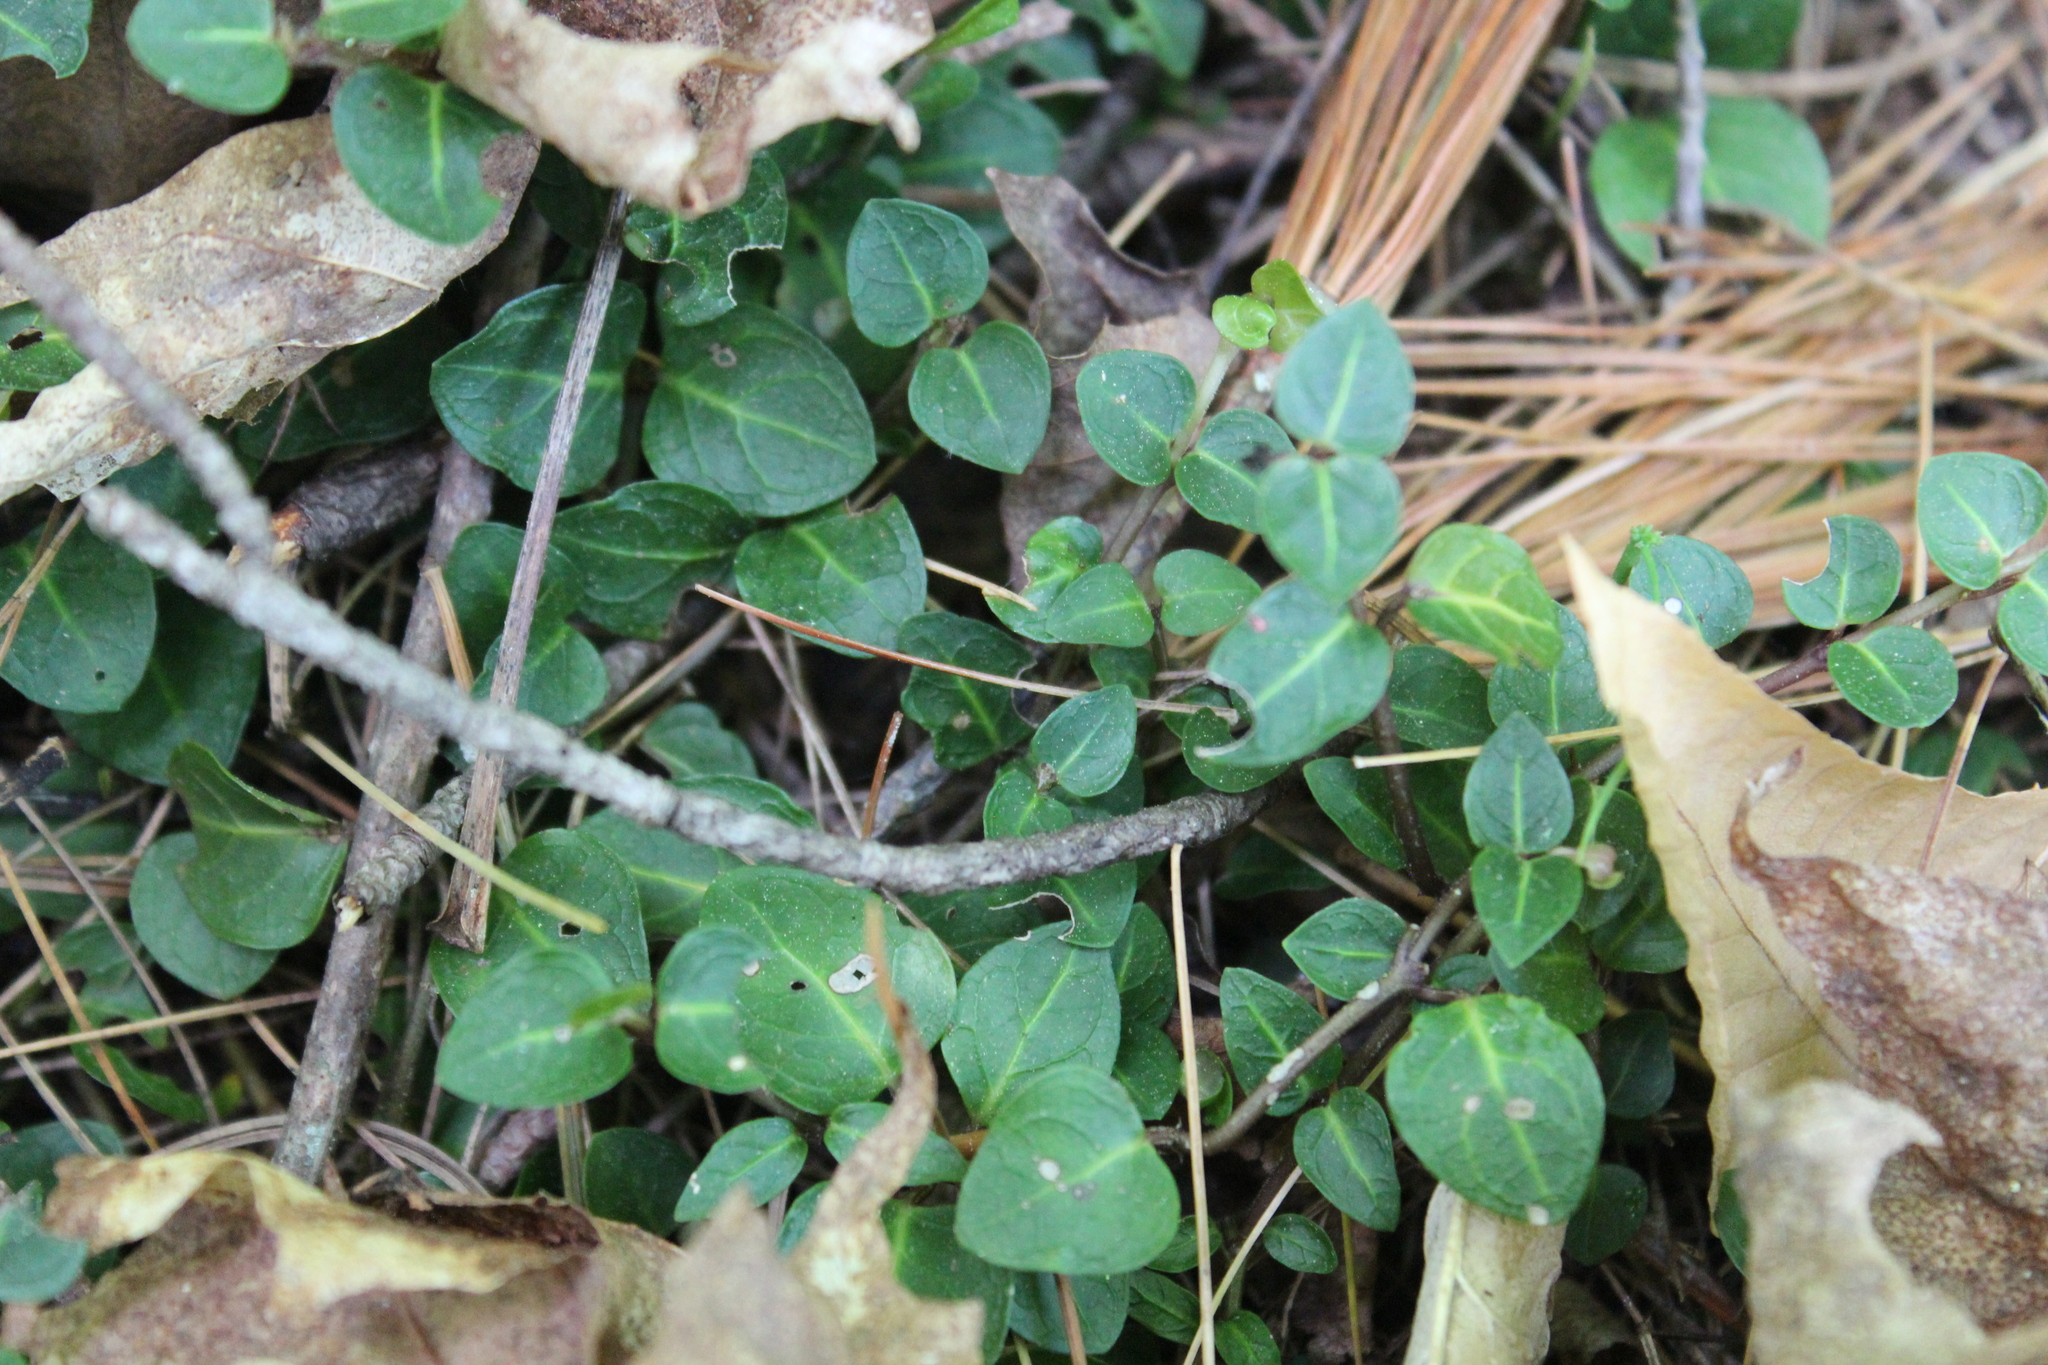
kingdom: Plantae
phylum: Tracheophyta
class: Magnoliopsida
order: Gentianales
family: Rubiaceae
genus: Mitchella
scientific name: Mitchella repens
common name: Partridge-berry
